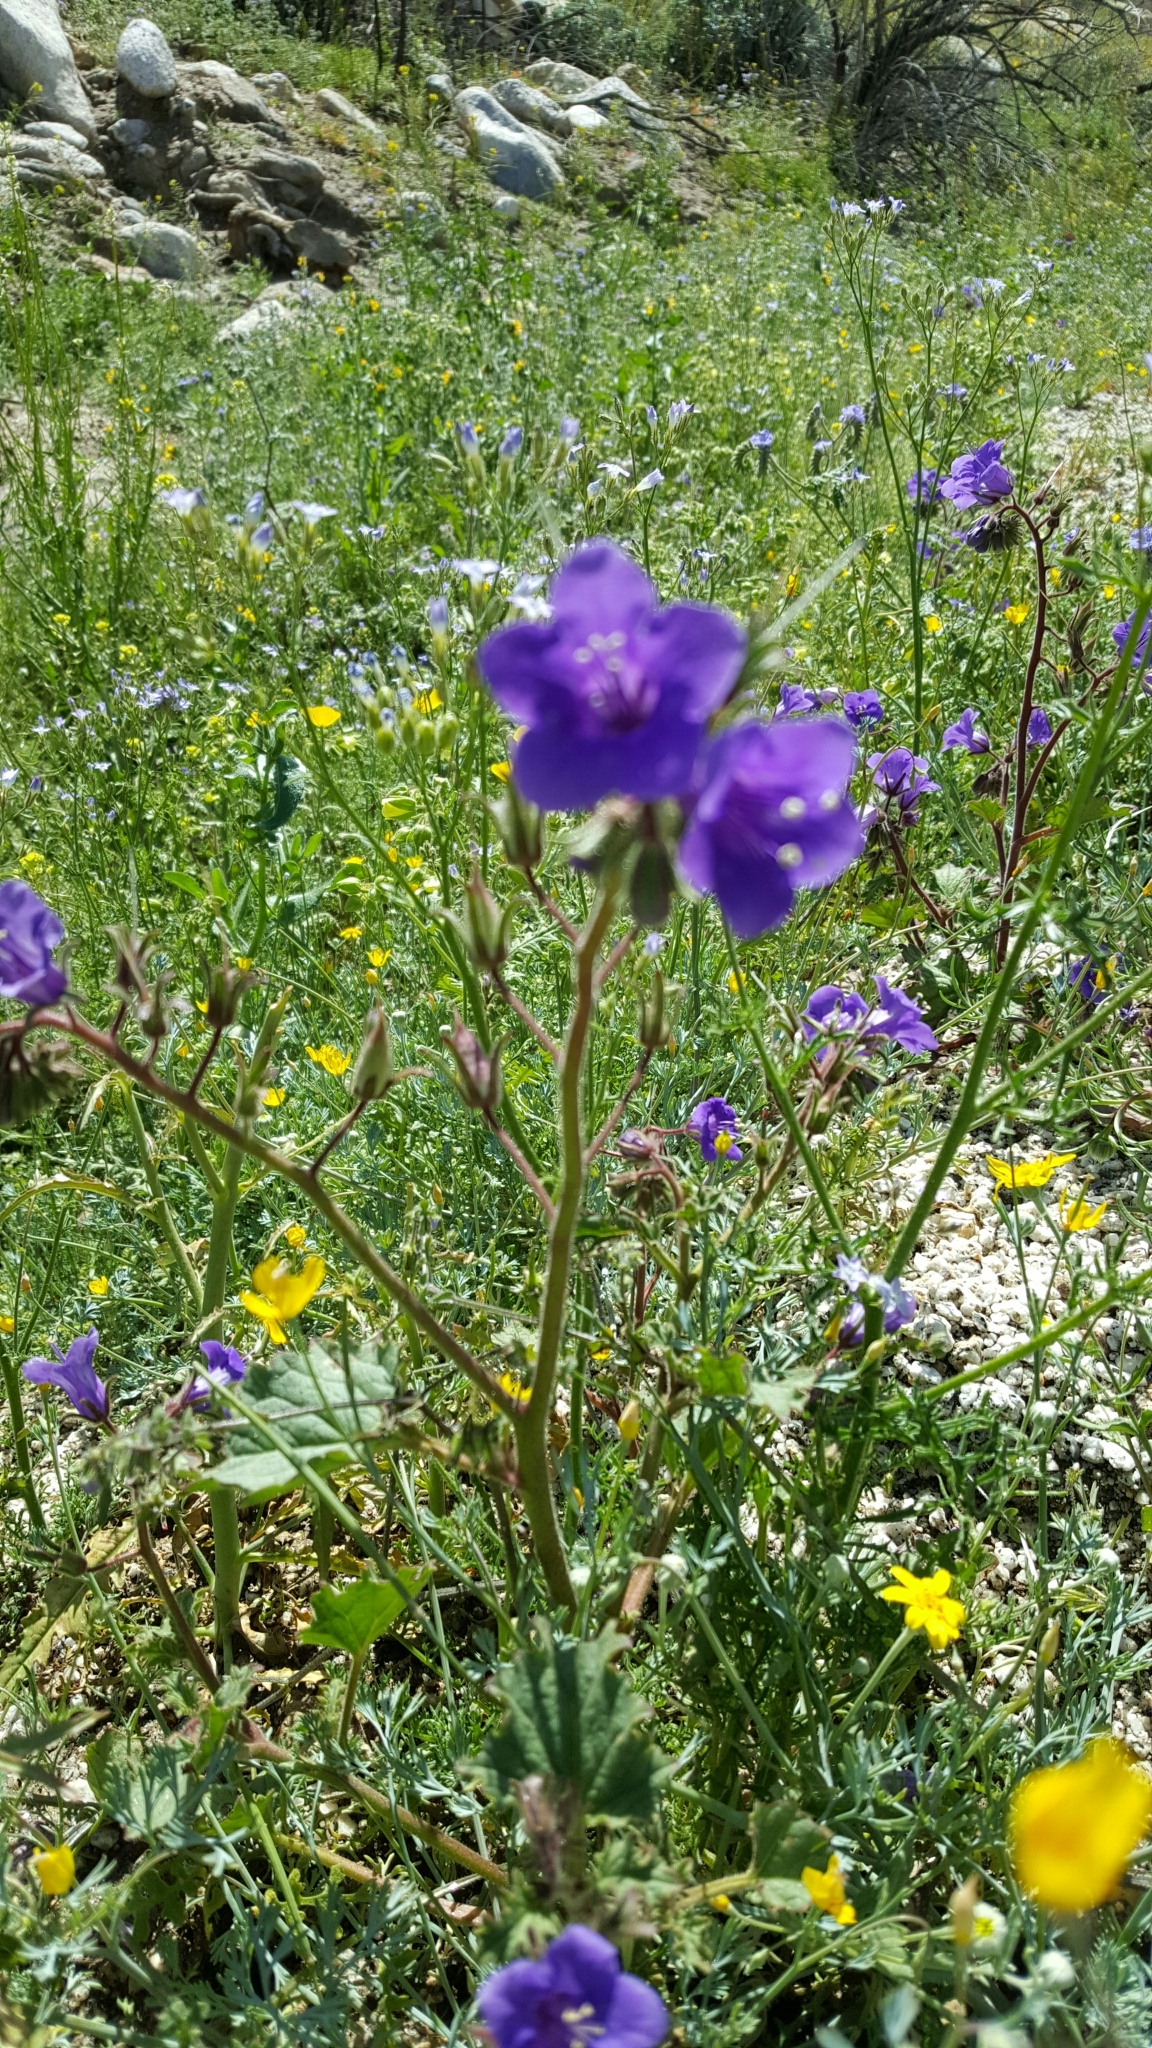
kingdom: Plantae
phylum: Tracheophyta
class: Magnoliopsida
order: Boraginales
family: Hydrophyllaceae
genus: Phacelia
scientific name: Phacelia minor
